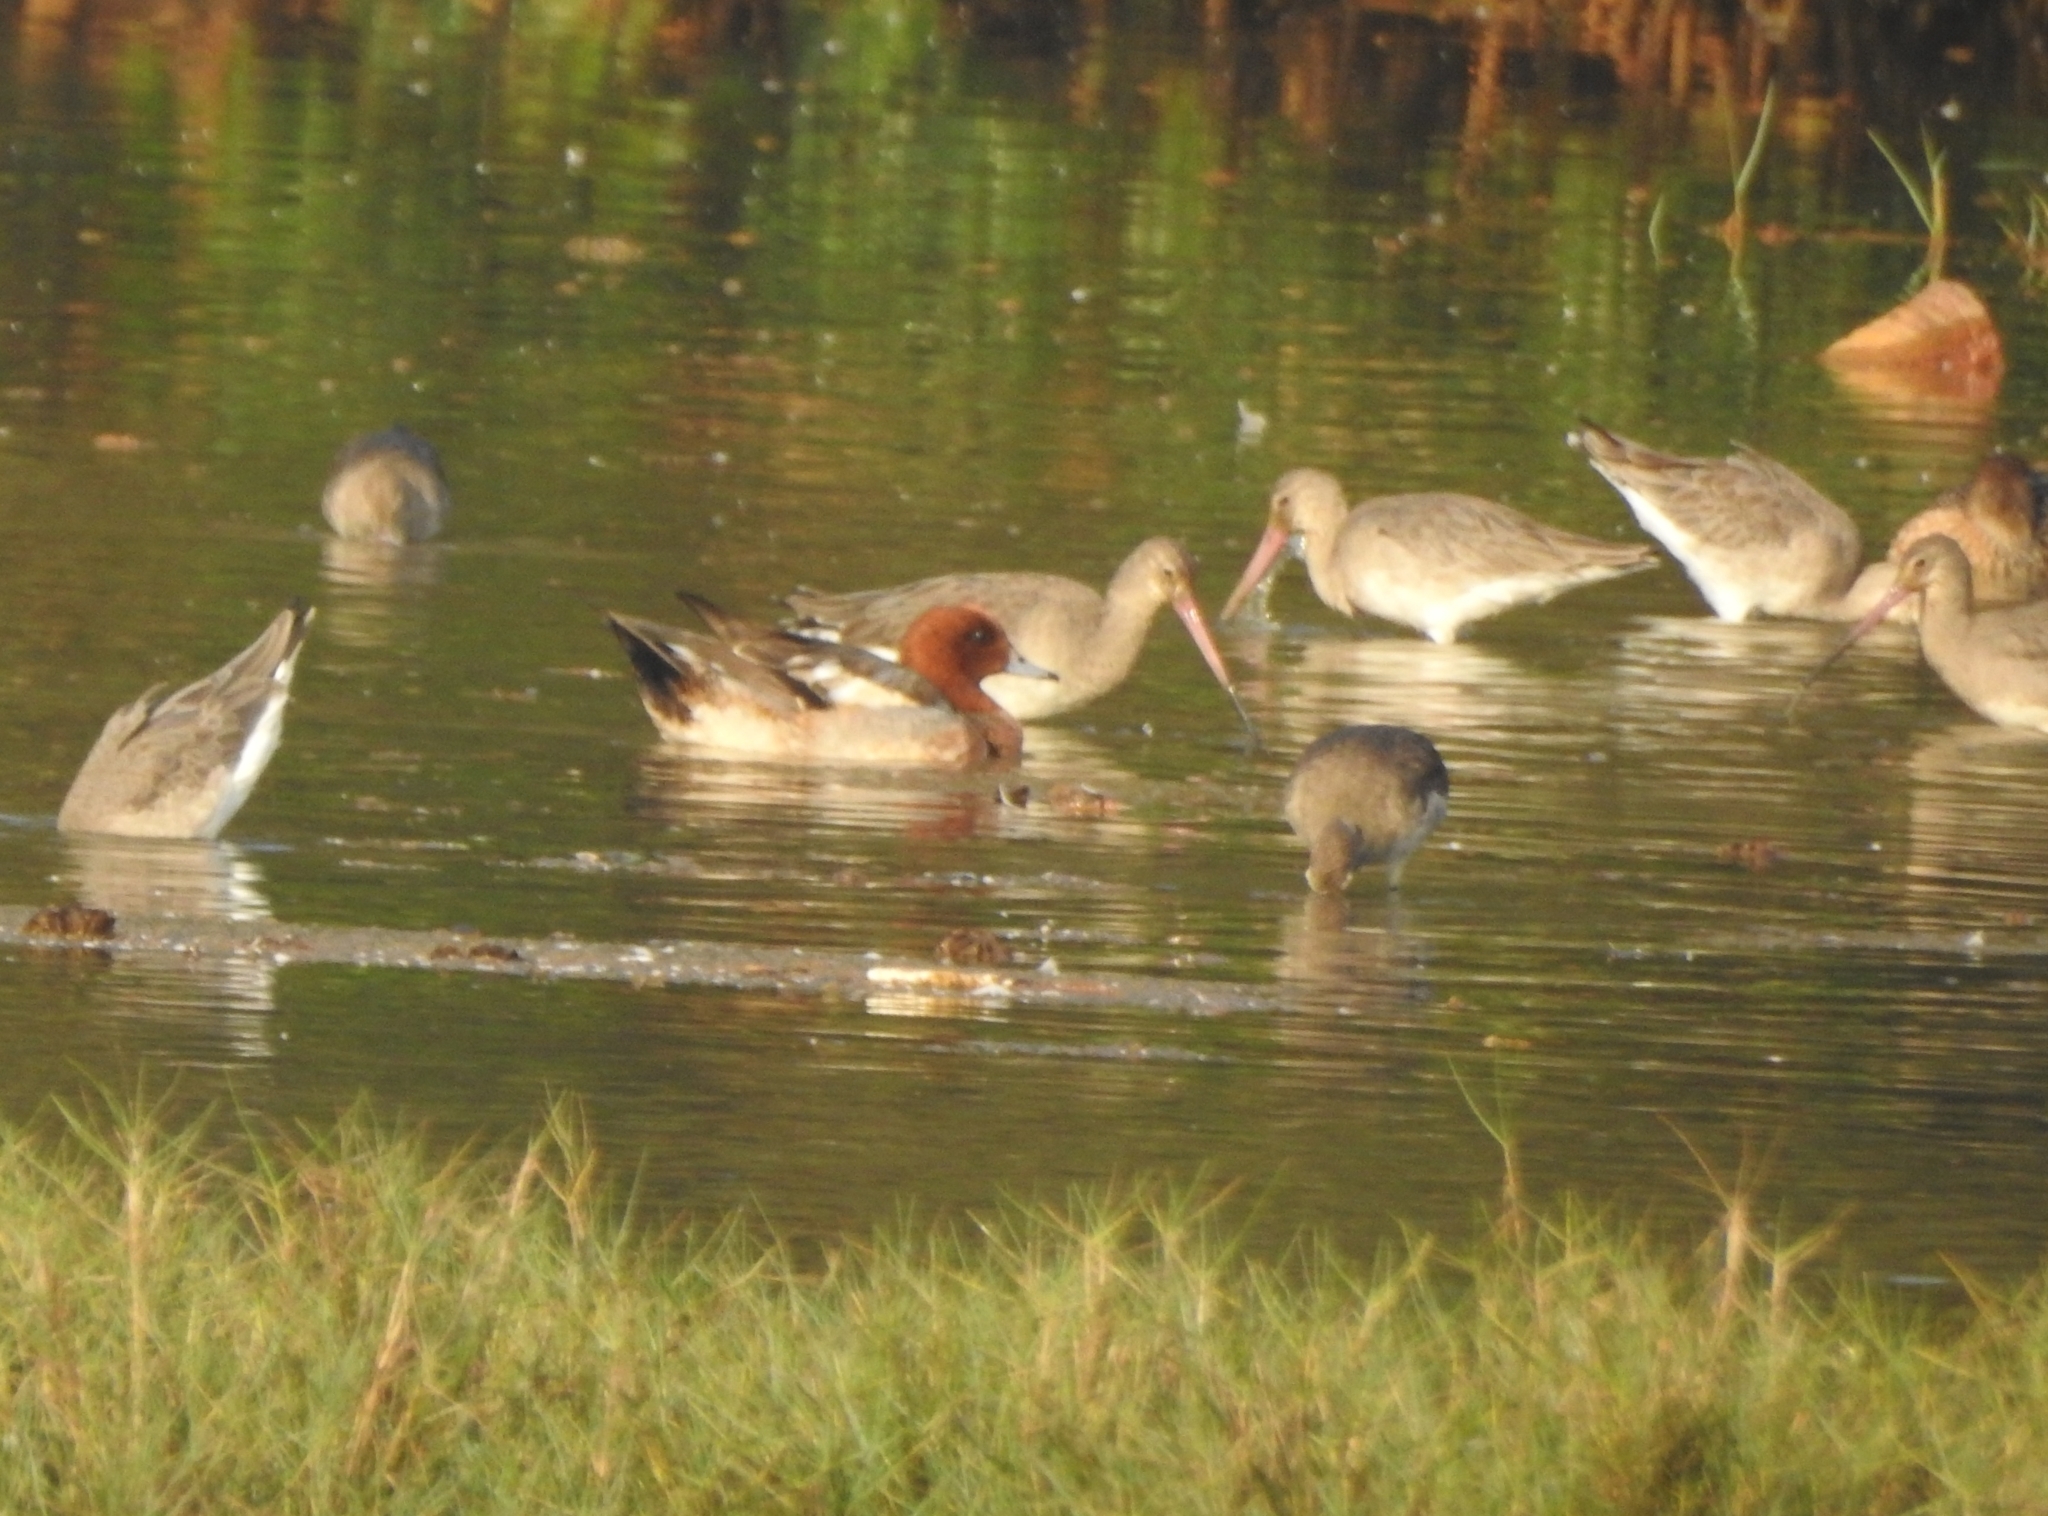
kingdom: Animalia
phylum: Chordata
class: Aves
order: Charadriiformes
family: Scolopacidae
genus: Limosa
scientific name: Limosa limosa
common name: Black-tailed godwit
